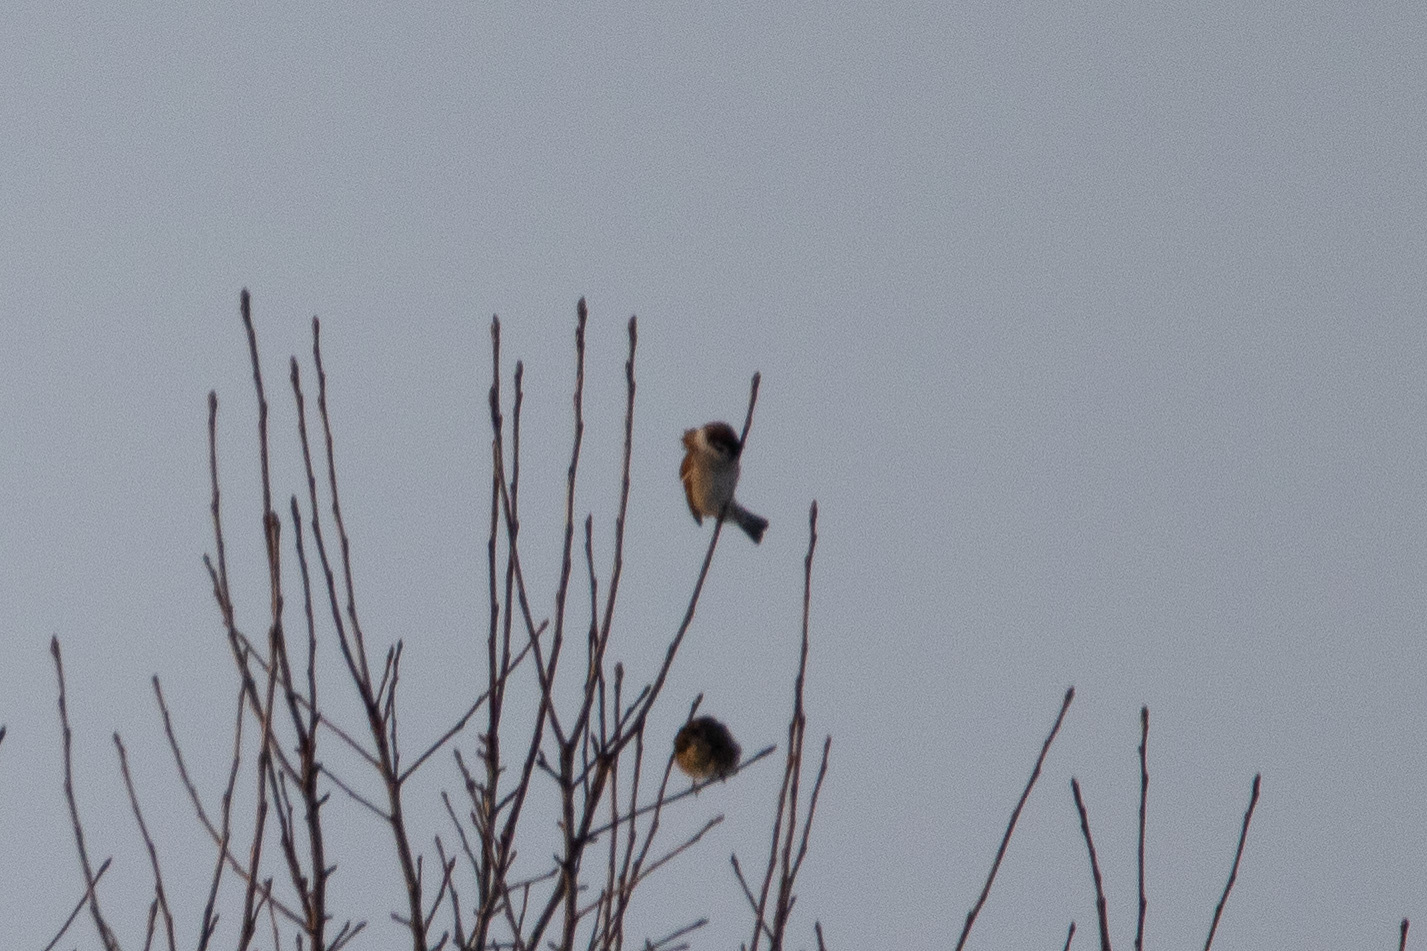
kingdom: Animalia
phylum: Chordata
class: Aves
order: Passeriformes
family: Passeridae
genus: Passer
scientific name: Passer montanus
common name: Eurasian tree sparrow
